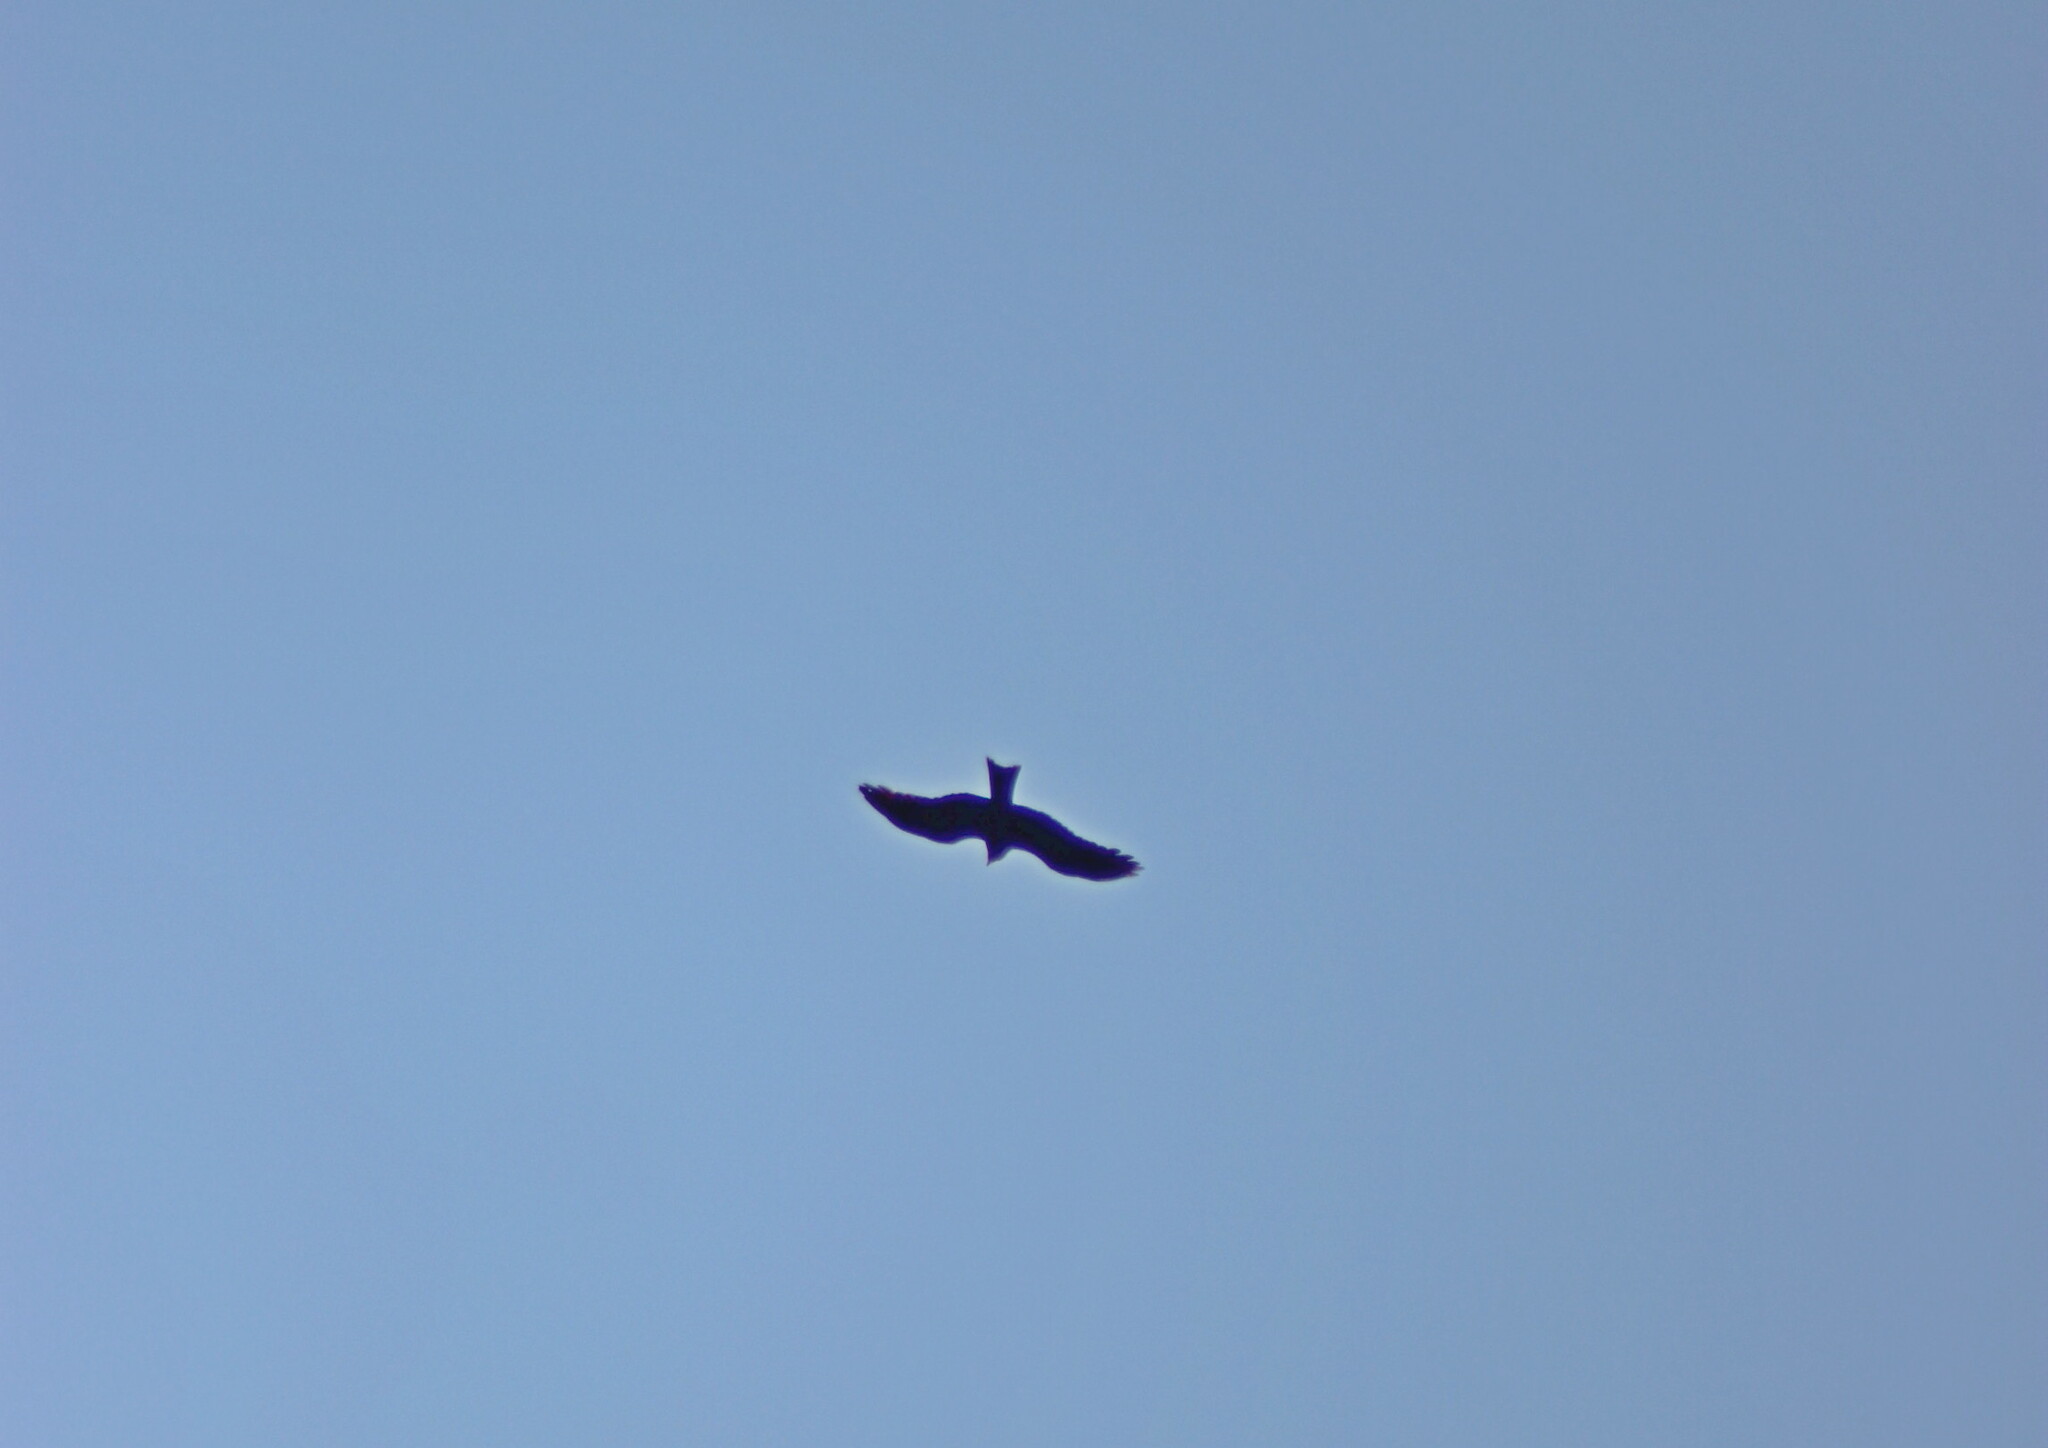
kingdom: Animalia
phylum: Chordata
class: Aves
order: Accipitriformes
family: Accipitridae
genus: Milvus
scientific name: Milvus migrans
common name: Black kite
